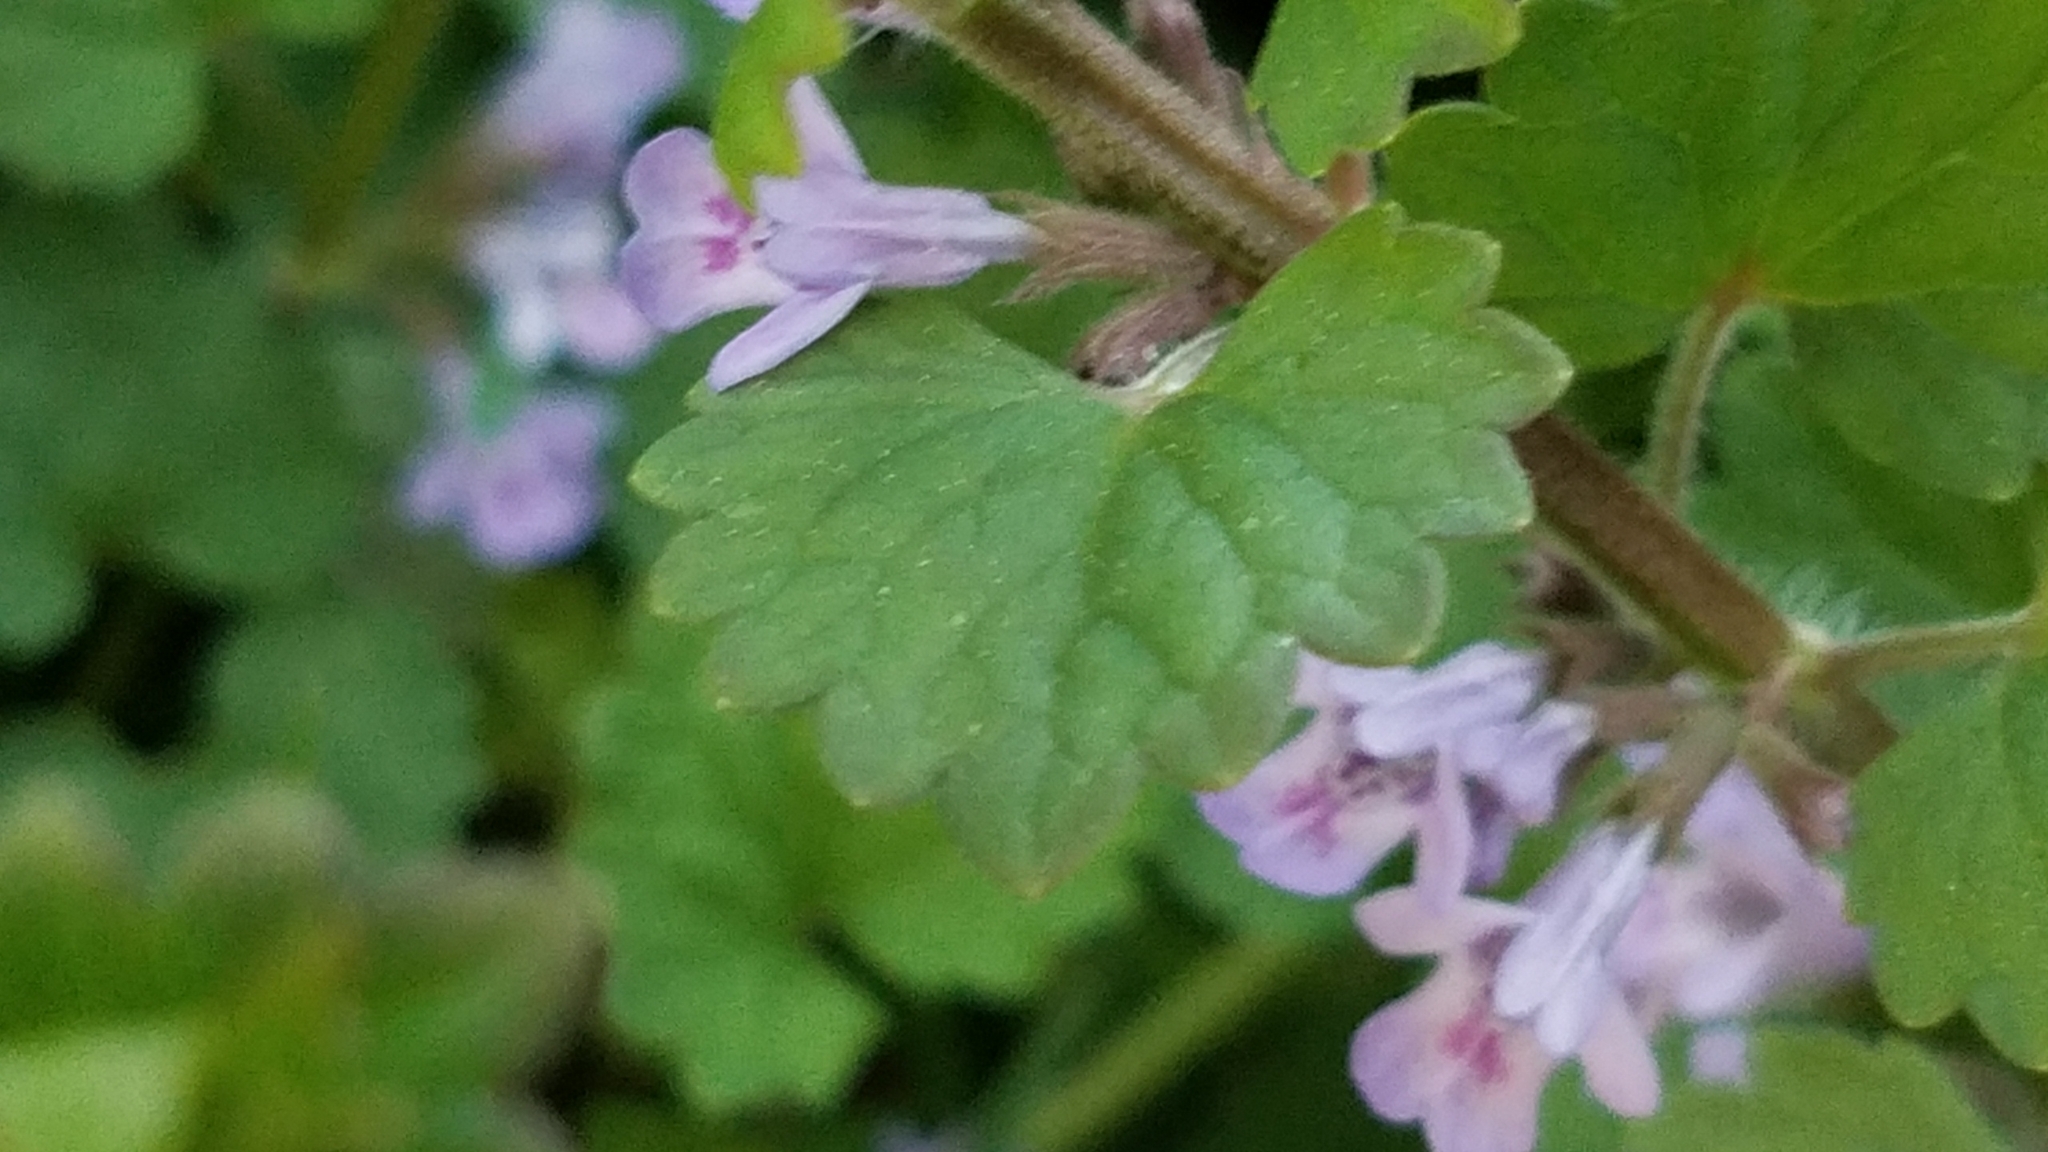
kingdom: Plantae
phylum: Tracheophyta
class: Magnoliopsida
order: Lamiales
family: Lamiaceae
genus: Glechoma
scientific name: Glechoma hederacea
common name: Ground ivy
